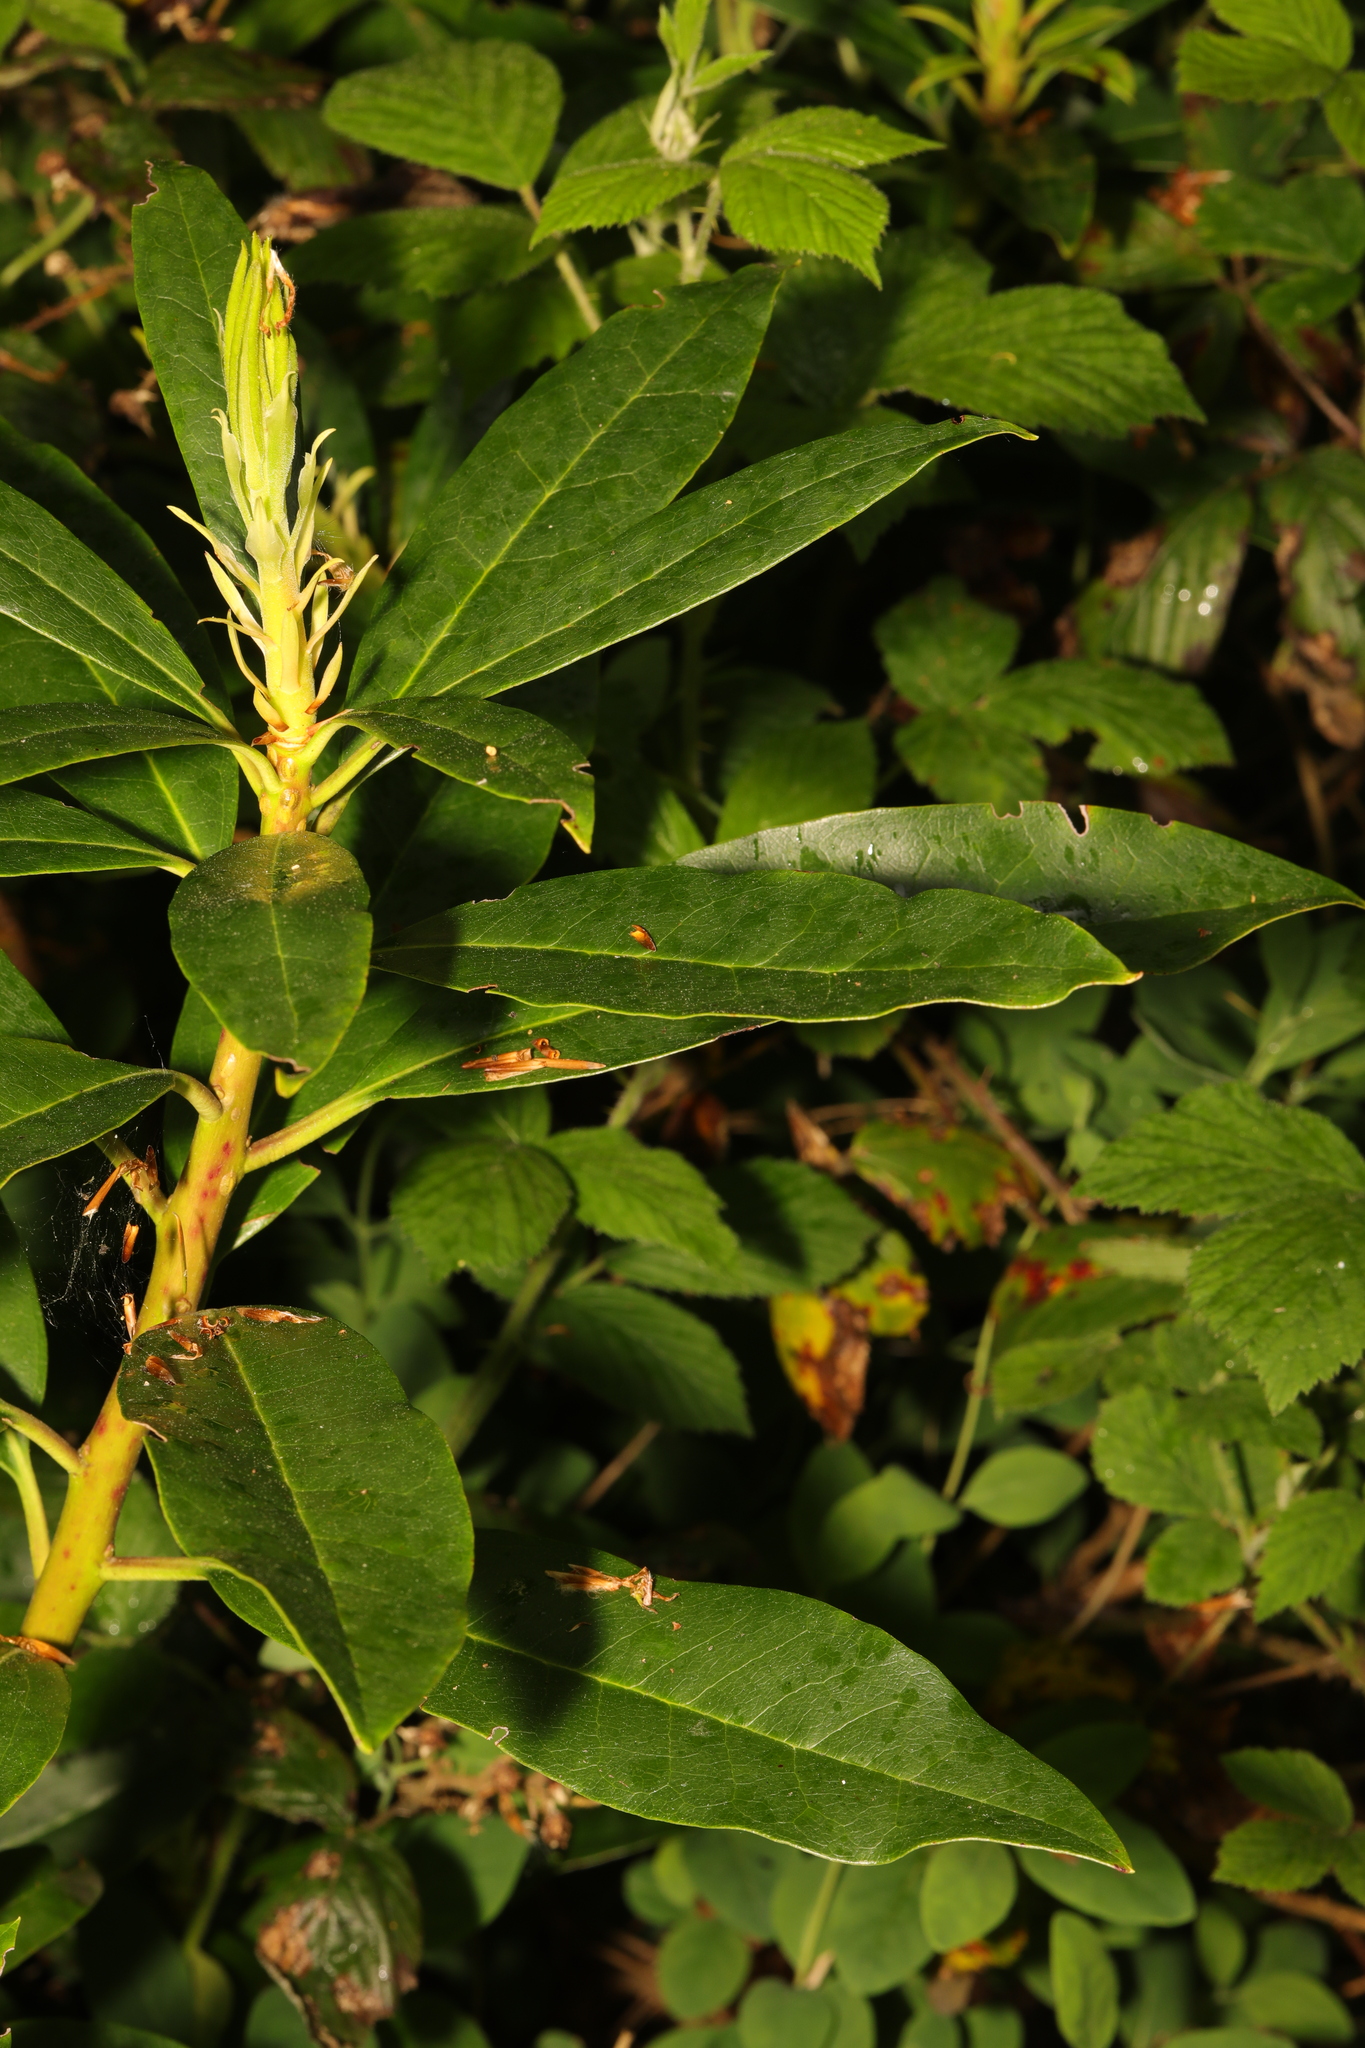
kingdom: Plantae
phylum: Tracheophyta
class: Magnoliopsida
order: Ericales
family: Ericaceae
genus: Rhododendron
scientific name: Rhododendron ponticum
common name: Rhododendron
